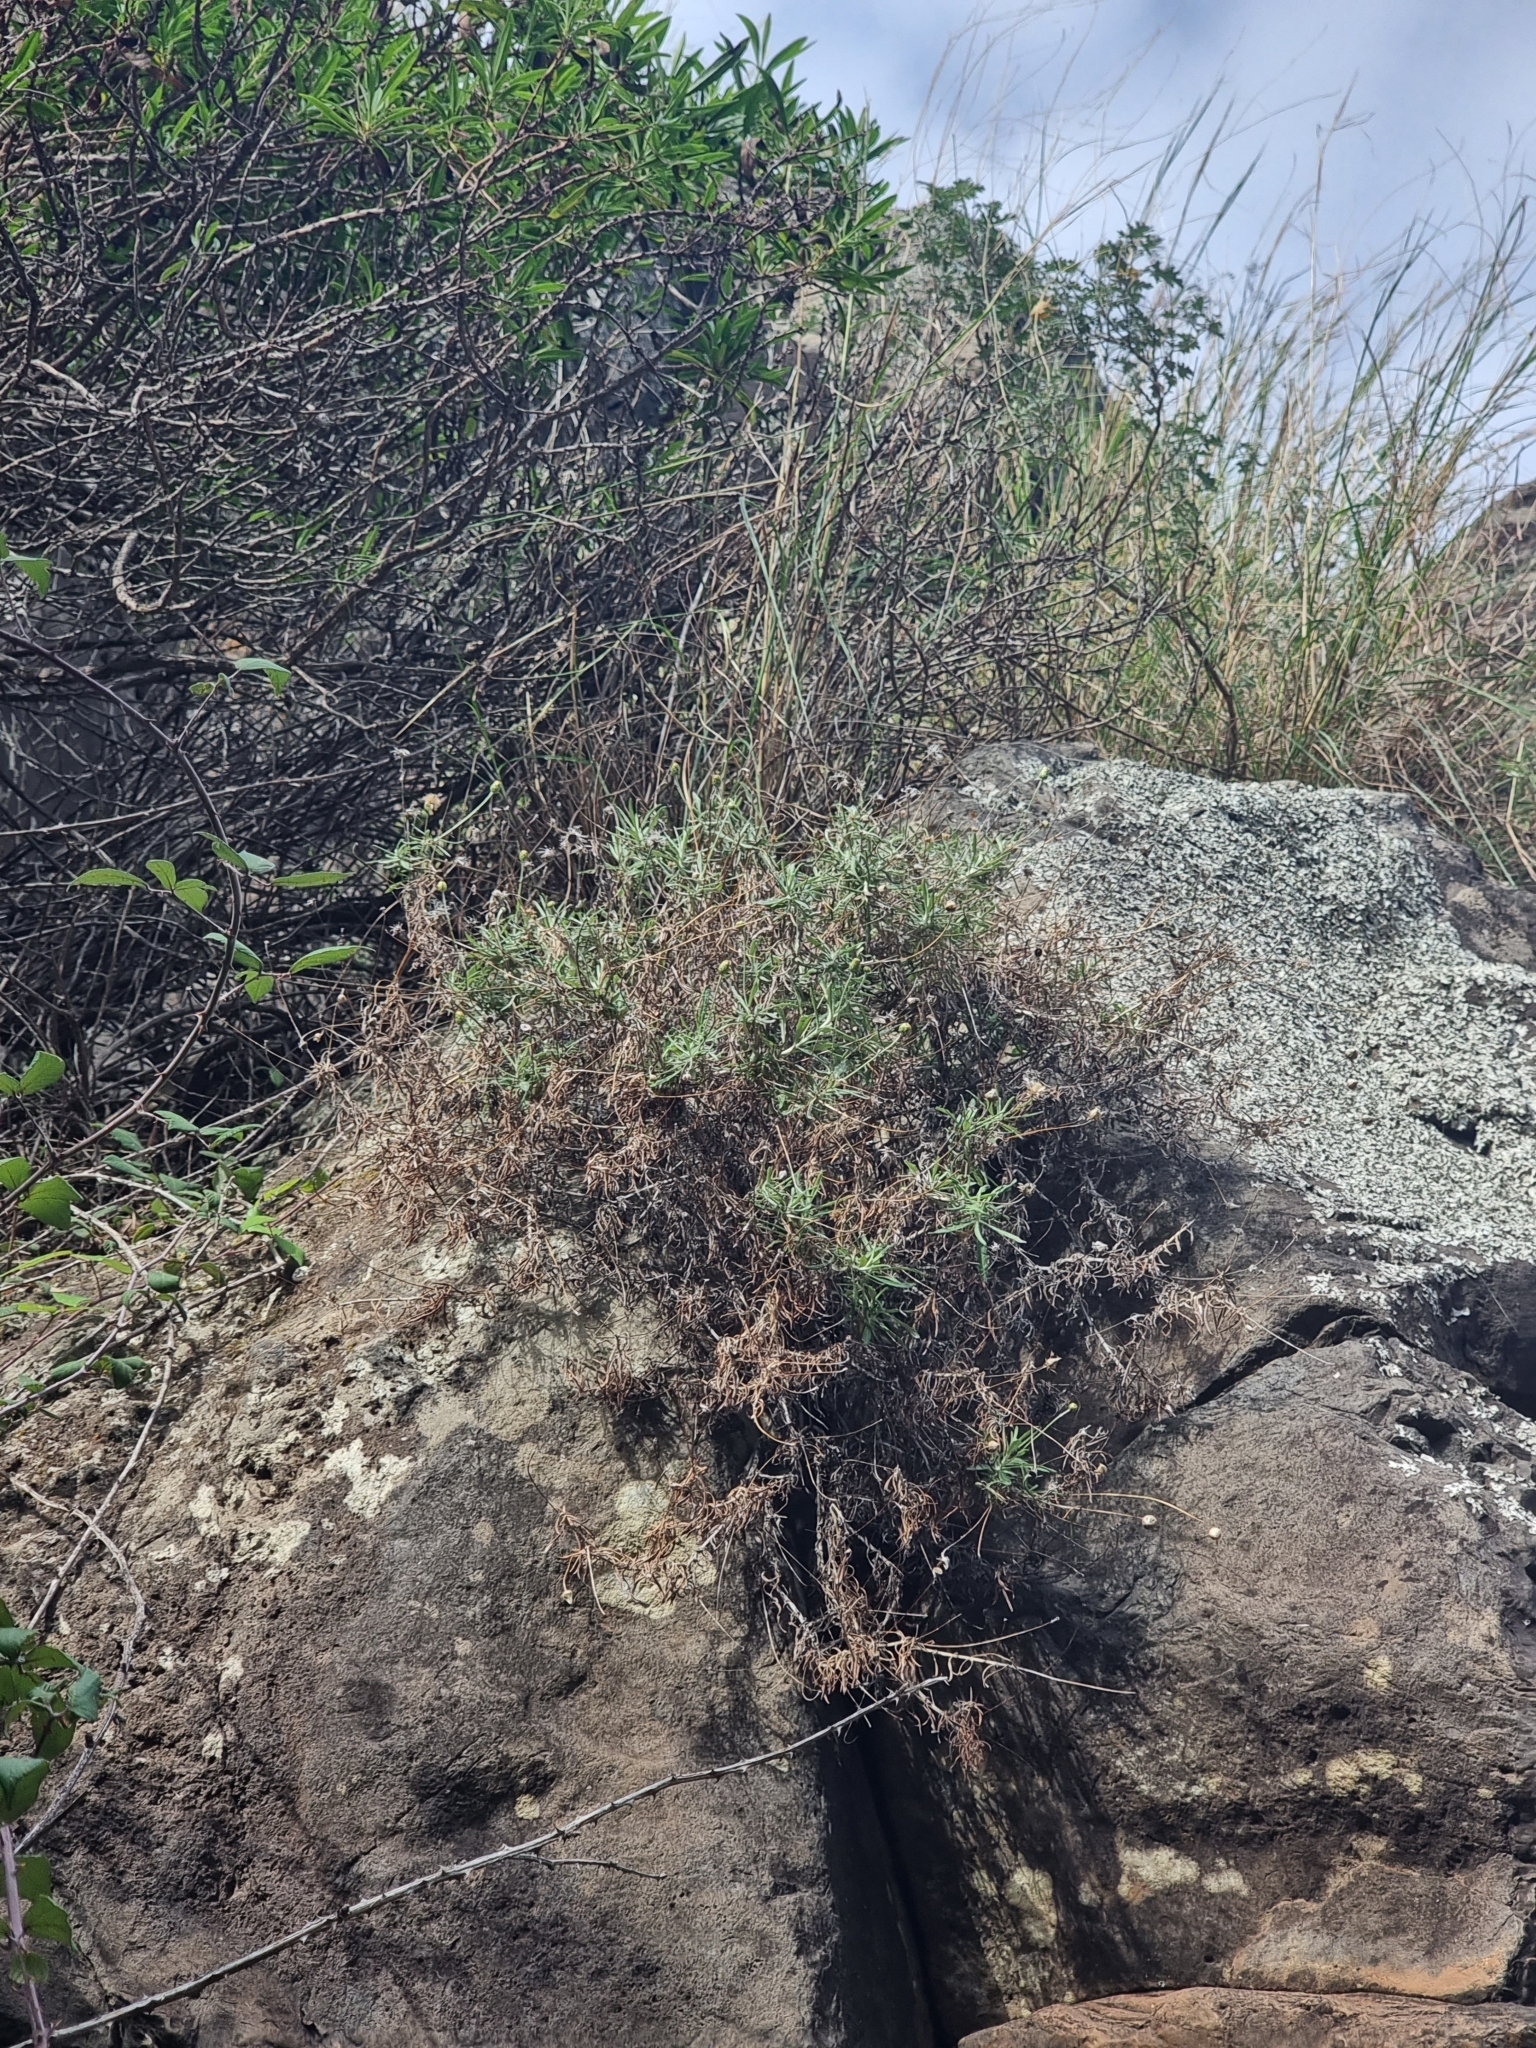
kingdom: Plantae
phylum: Tracheophyta
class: Magnoliopsida
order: Asterales
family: Asteraceae
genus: Phagnalon
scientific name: Phagnalon saxatile
